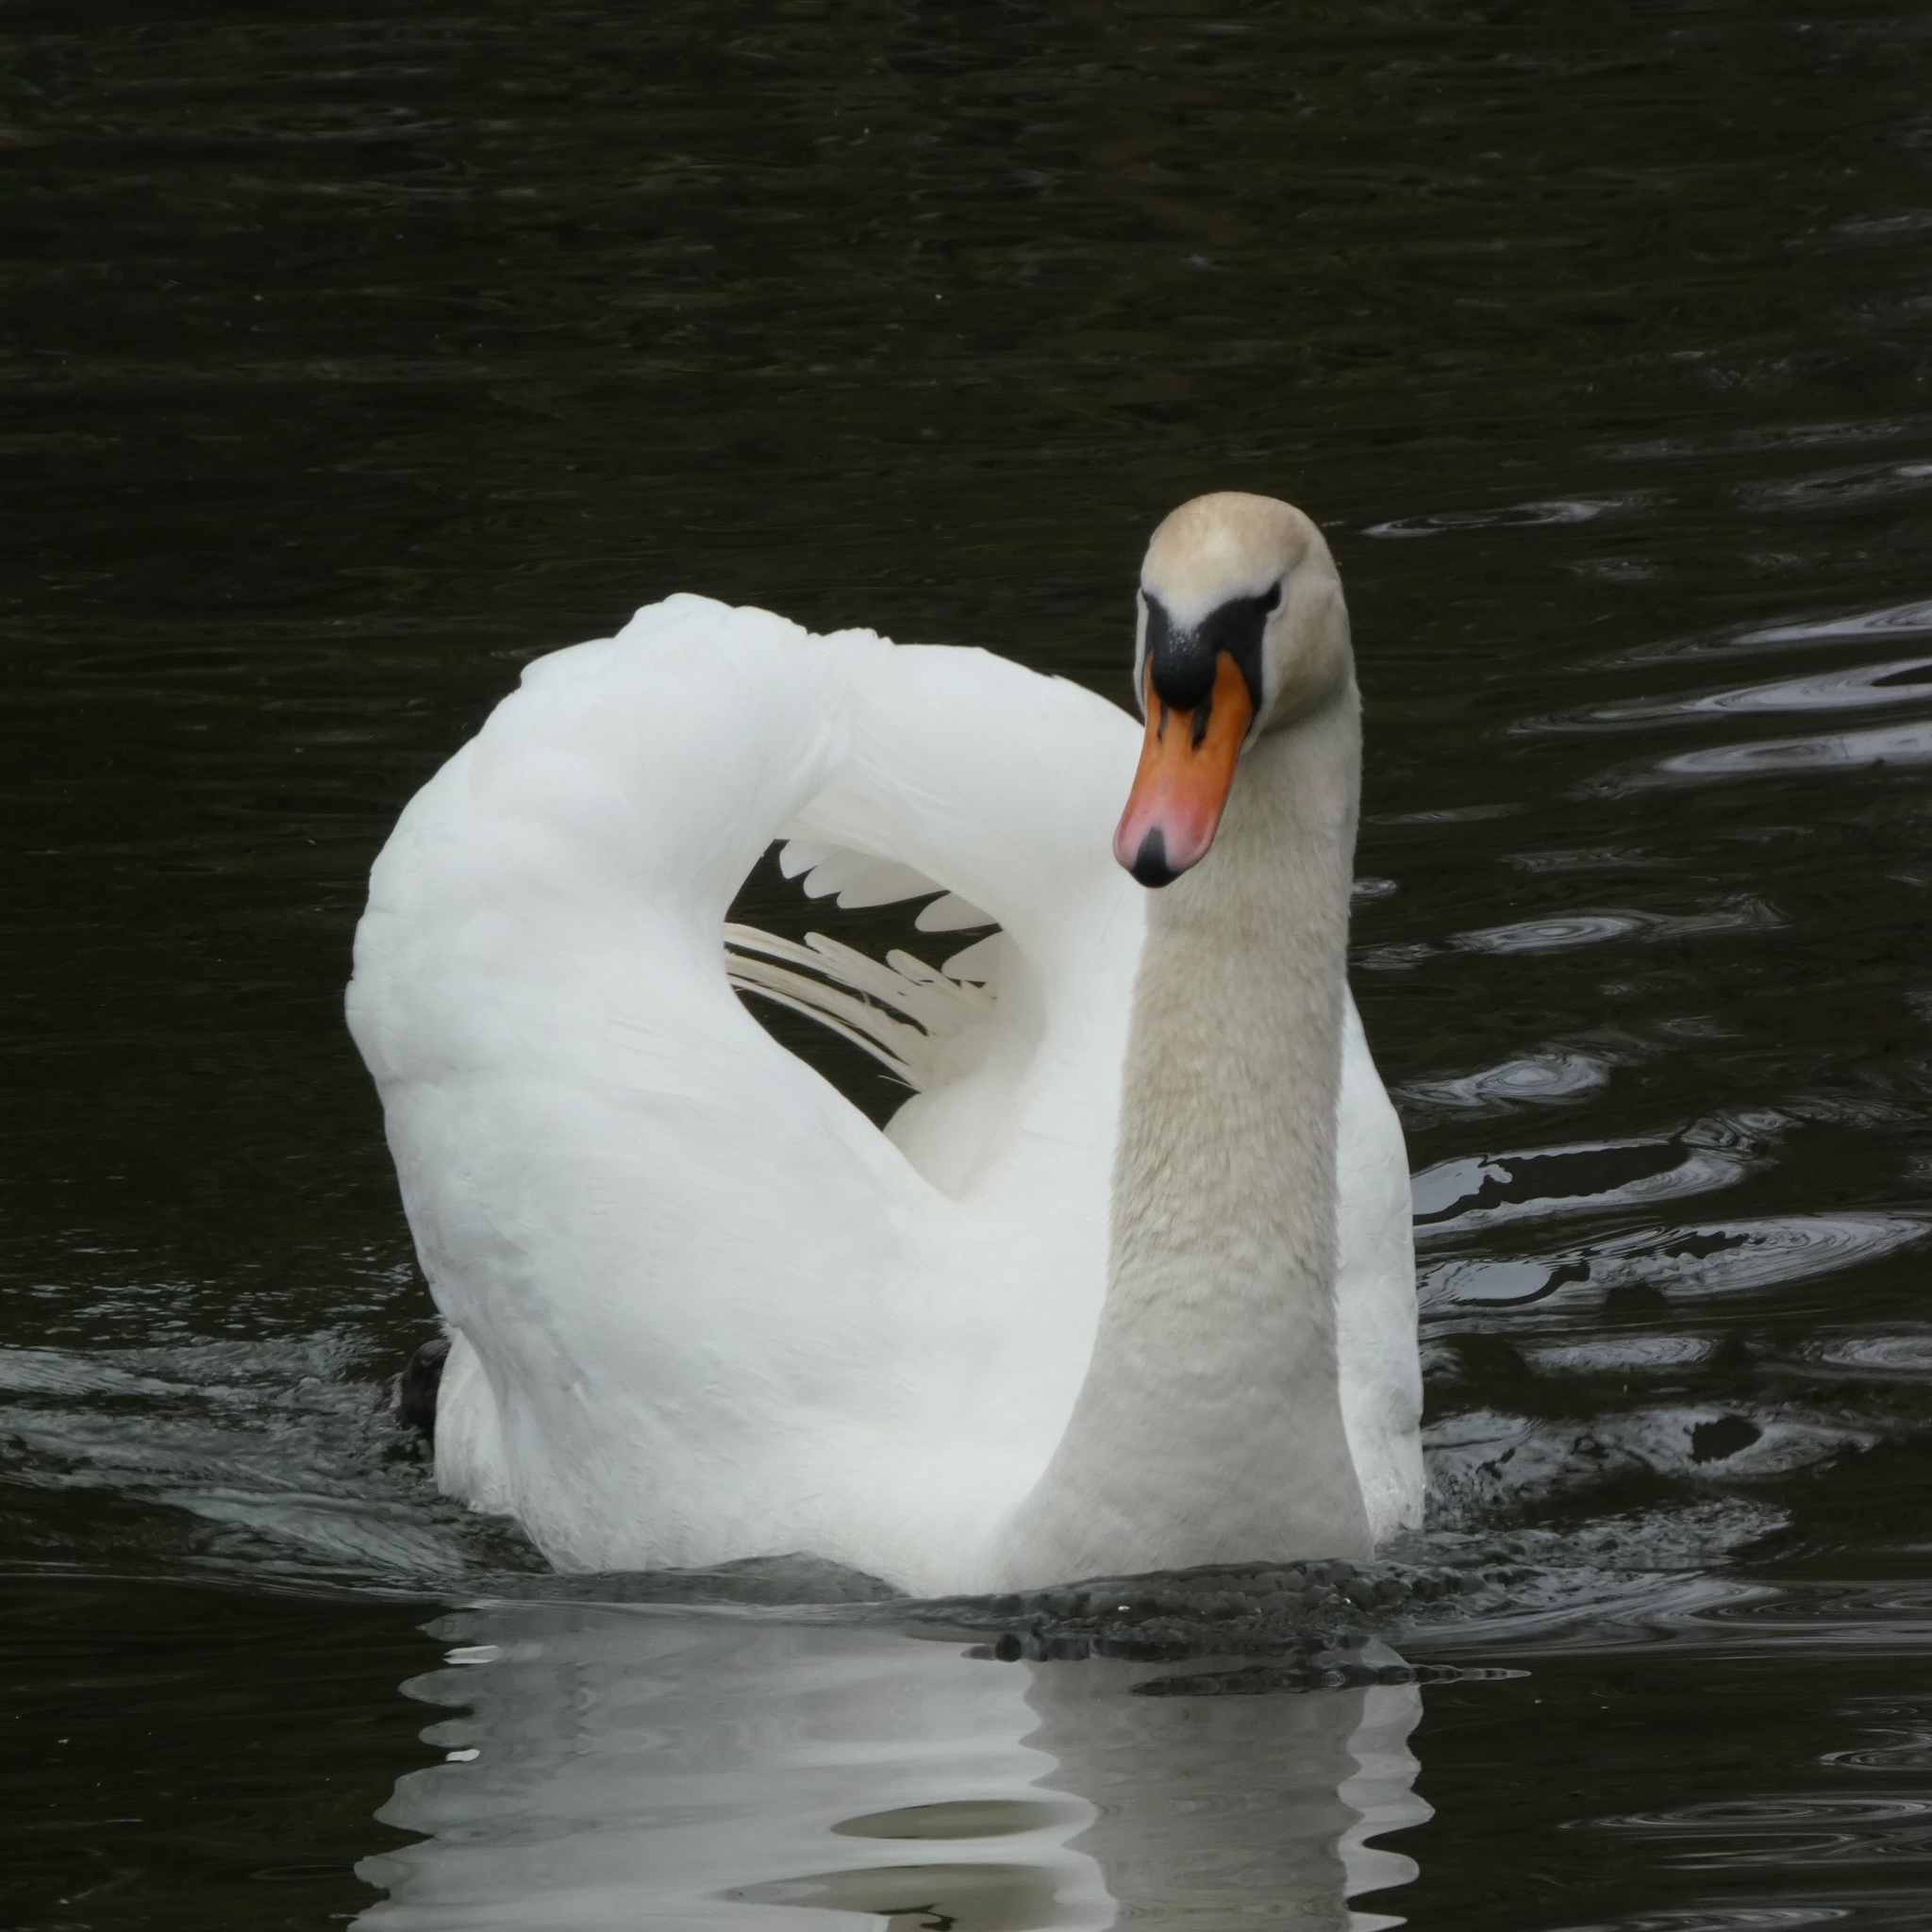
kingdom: Animalia
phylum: Chordata
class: Aves
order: Anseriformes
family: Anatidae
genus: Cygnus
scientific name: Cygnus olor
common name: Mute swan
